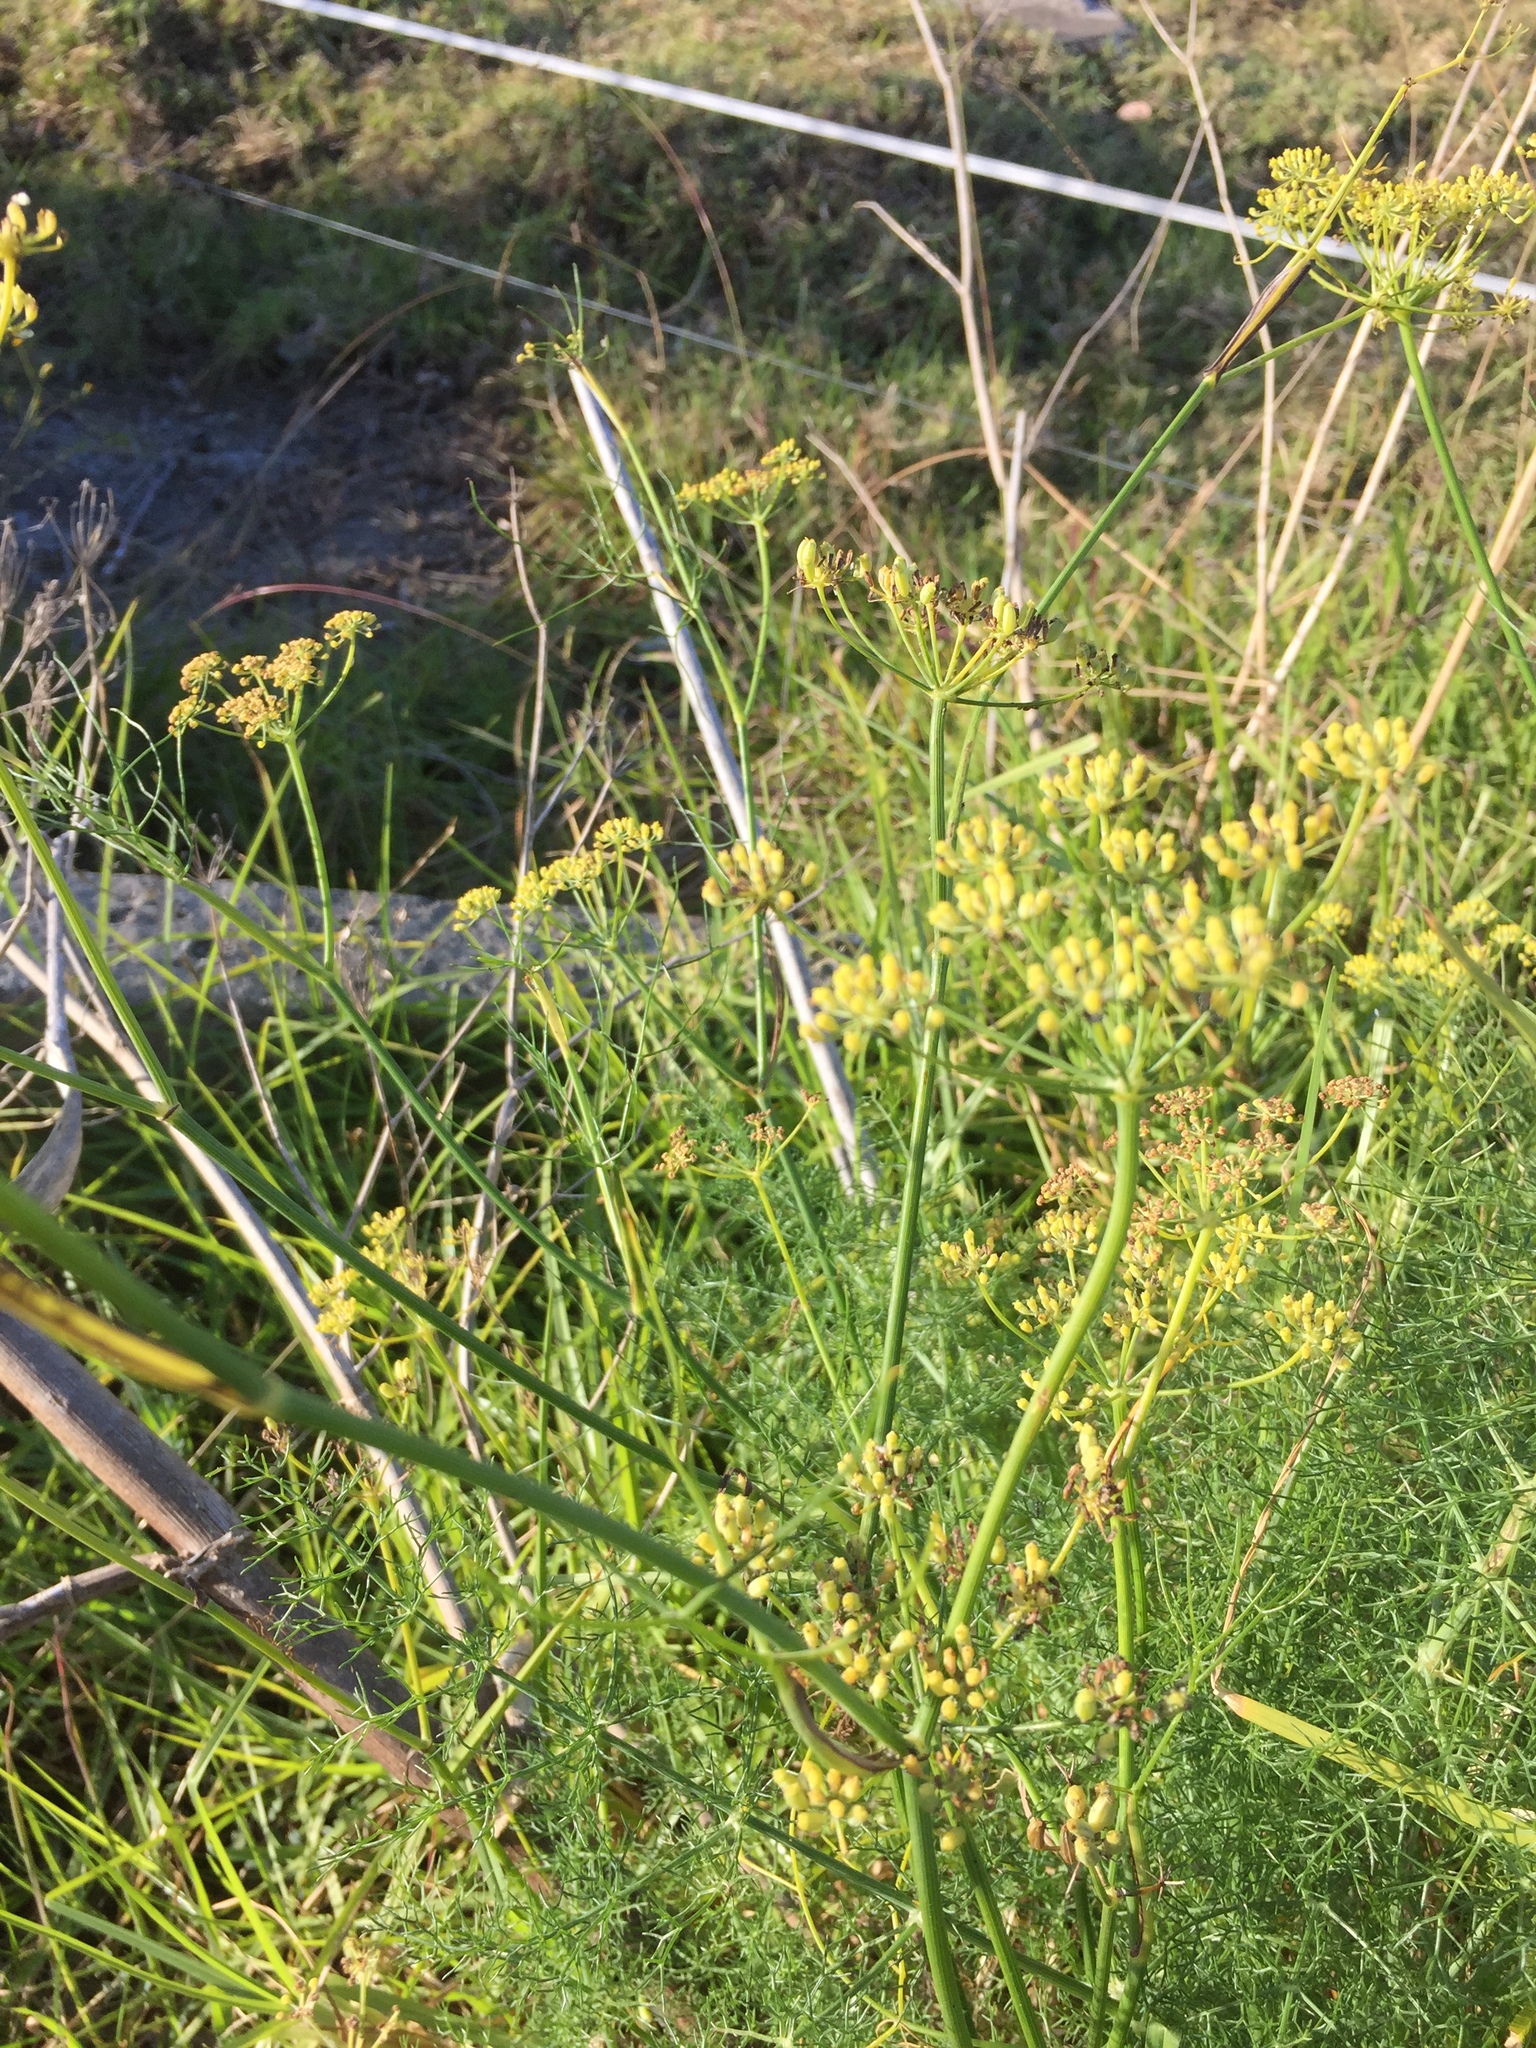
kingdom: Plantae
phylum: Tracheophyta
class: Magnoliopsida
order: Apiales
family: Apiaceae
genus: Foeniculum
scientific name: Foeniculum vulgare
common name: Fennel
